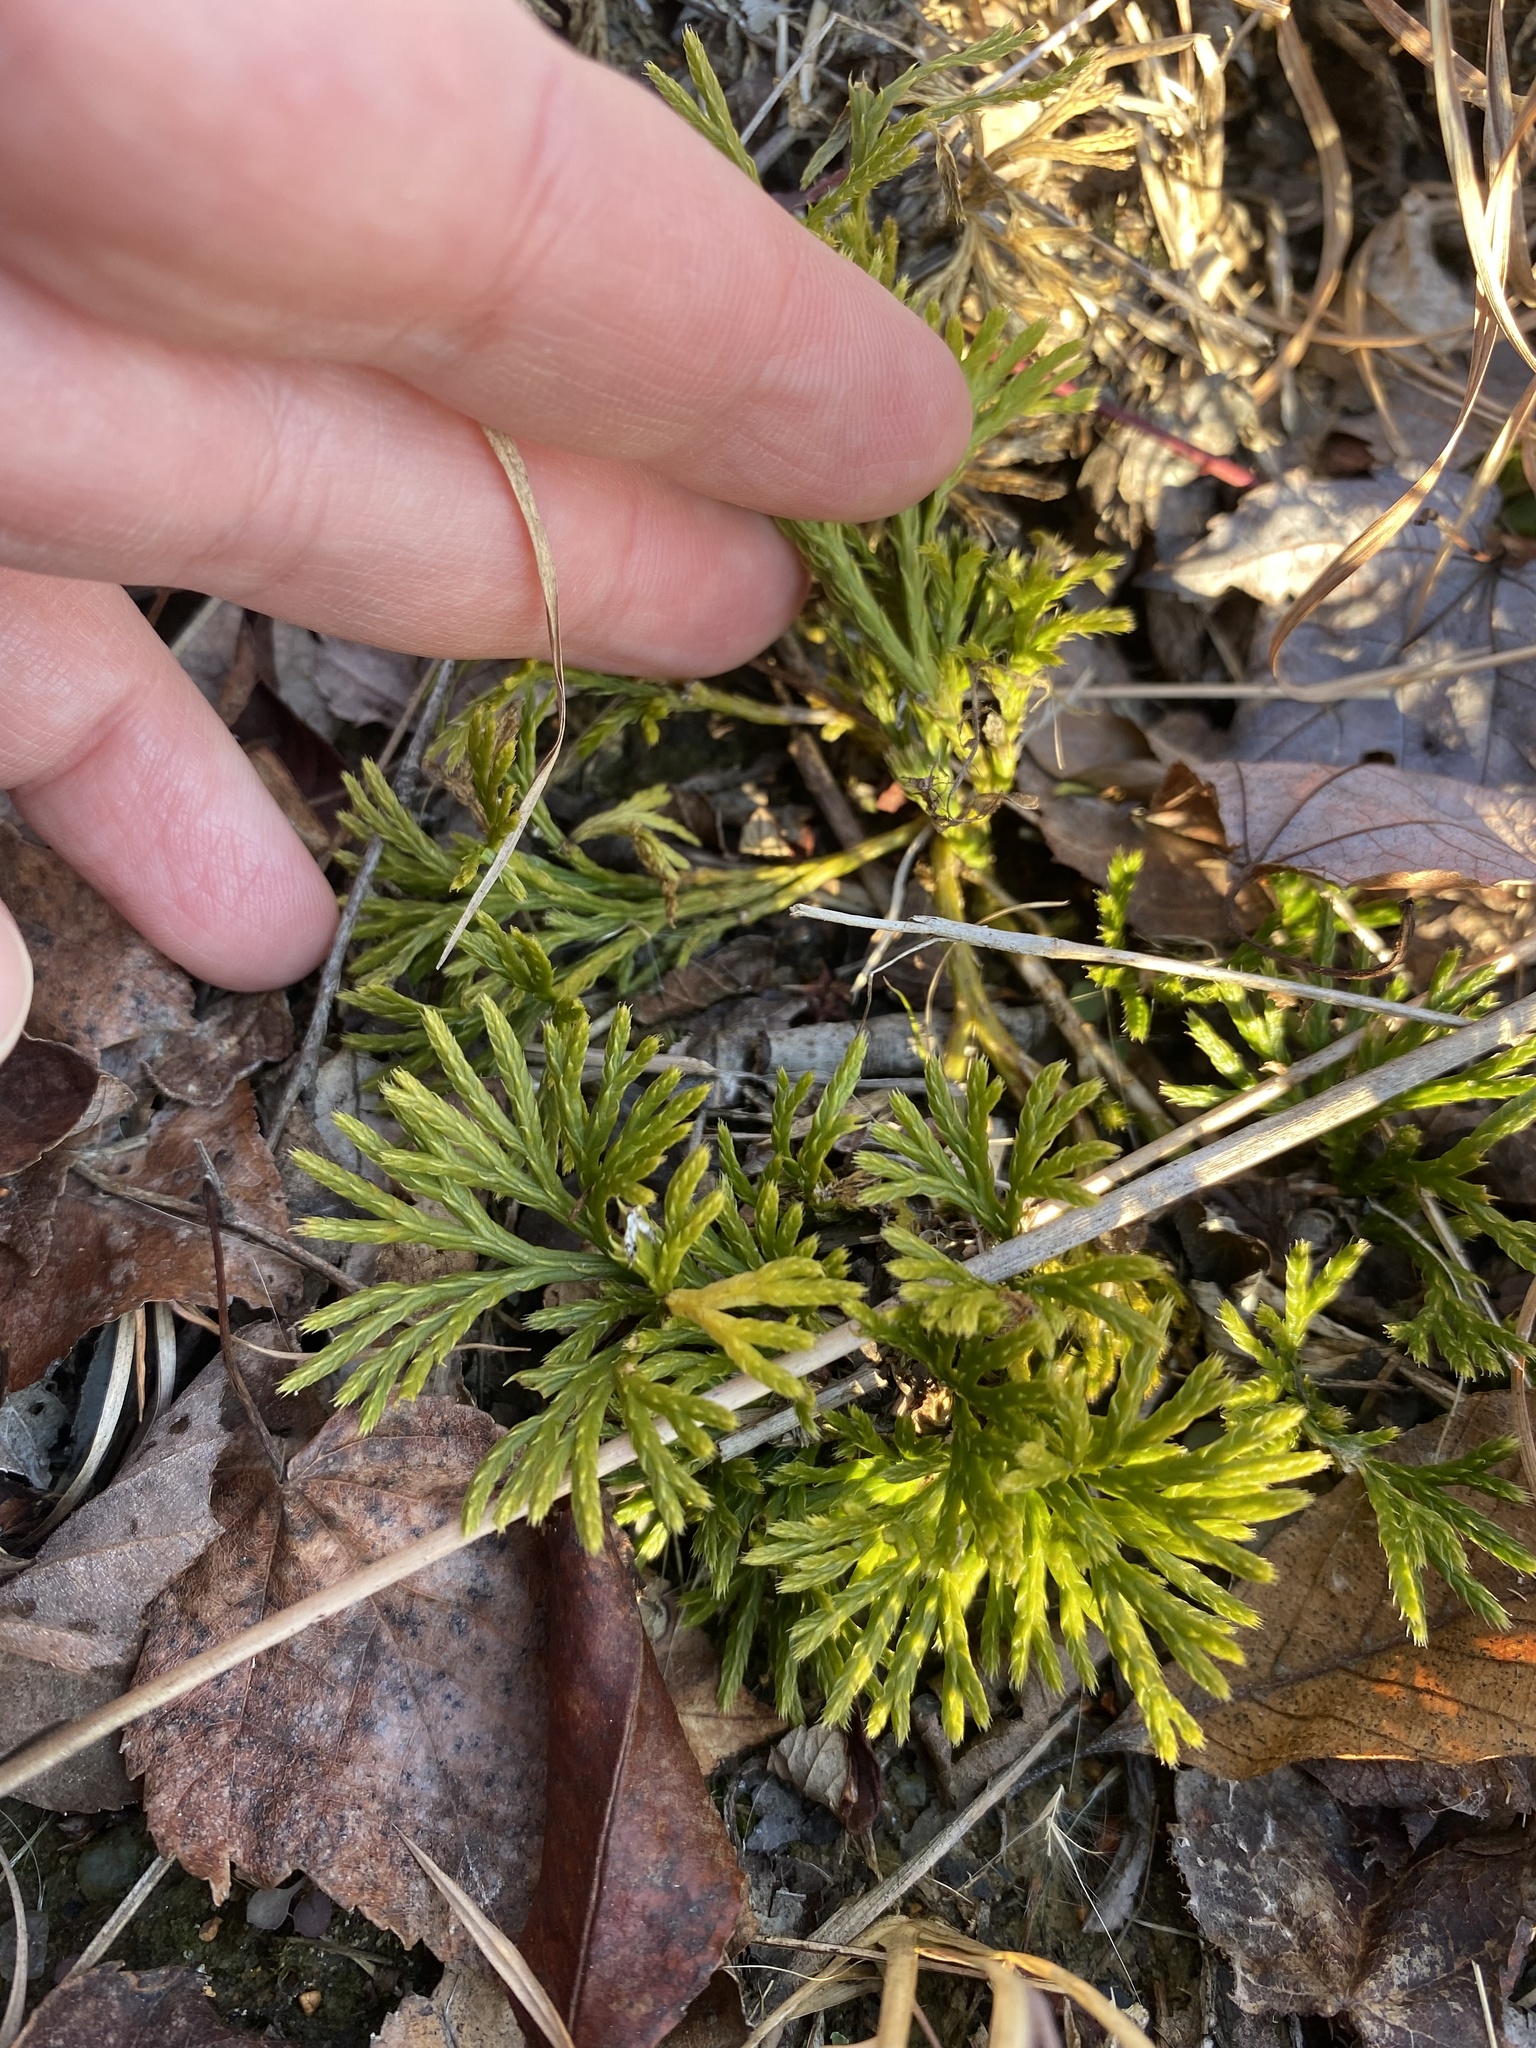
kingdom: Plantae
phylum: Tracheophyta
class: Lycopodiopsida
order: Lycopodiales
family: Lycopodiaceae
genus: Diphasiastrum
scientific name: Diphasiastrum digitatum
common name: Southern running-pine
